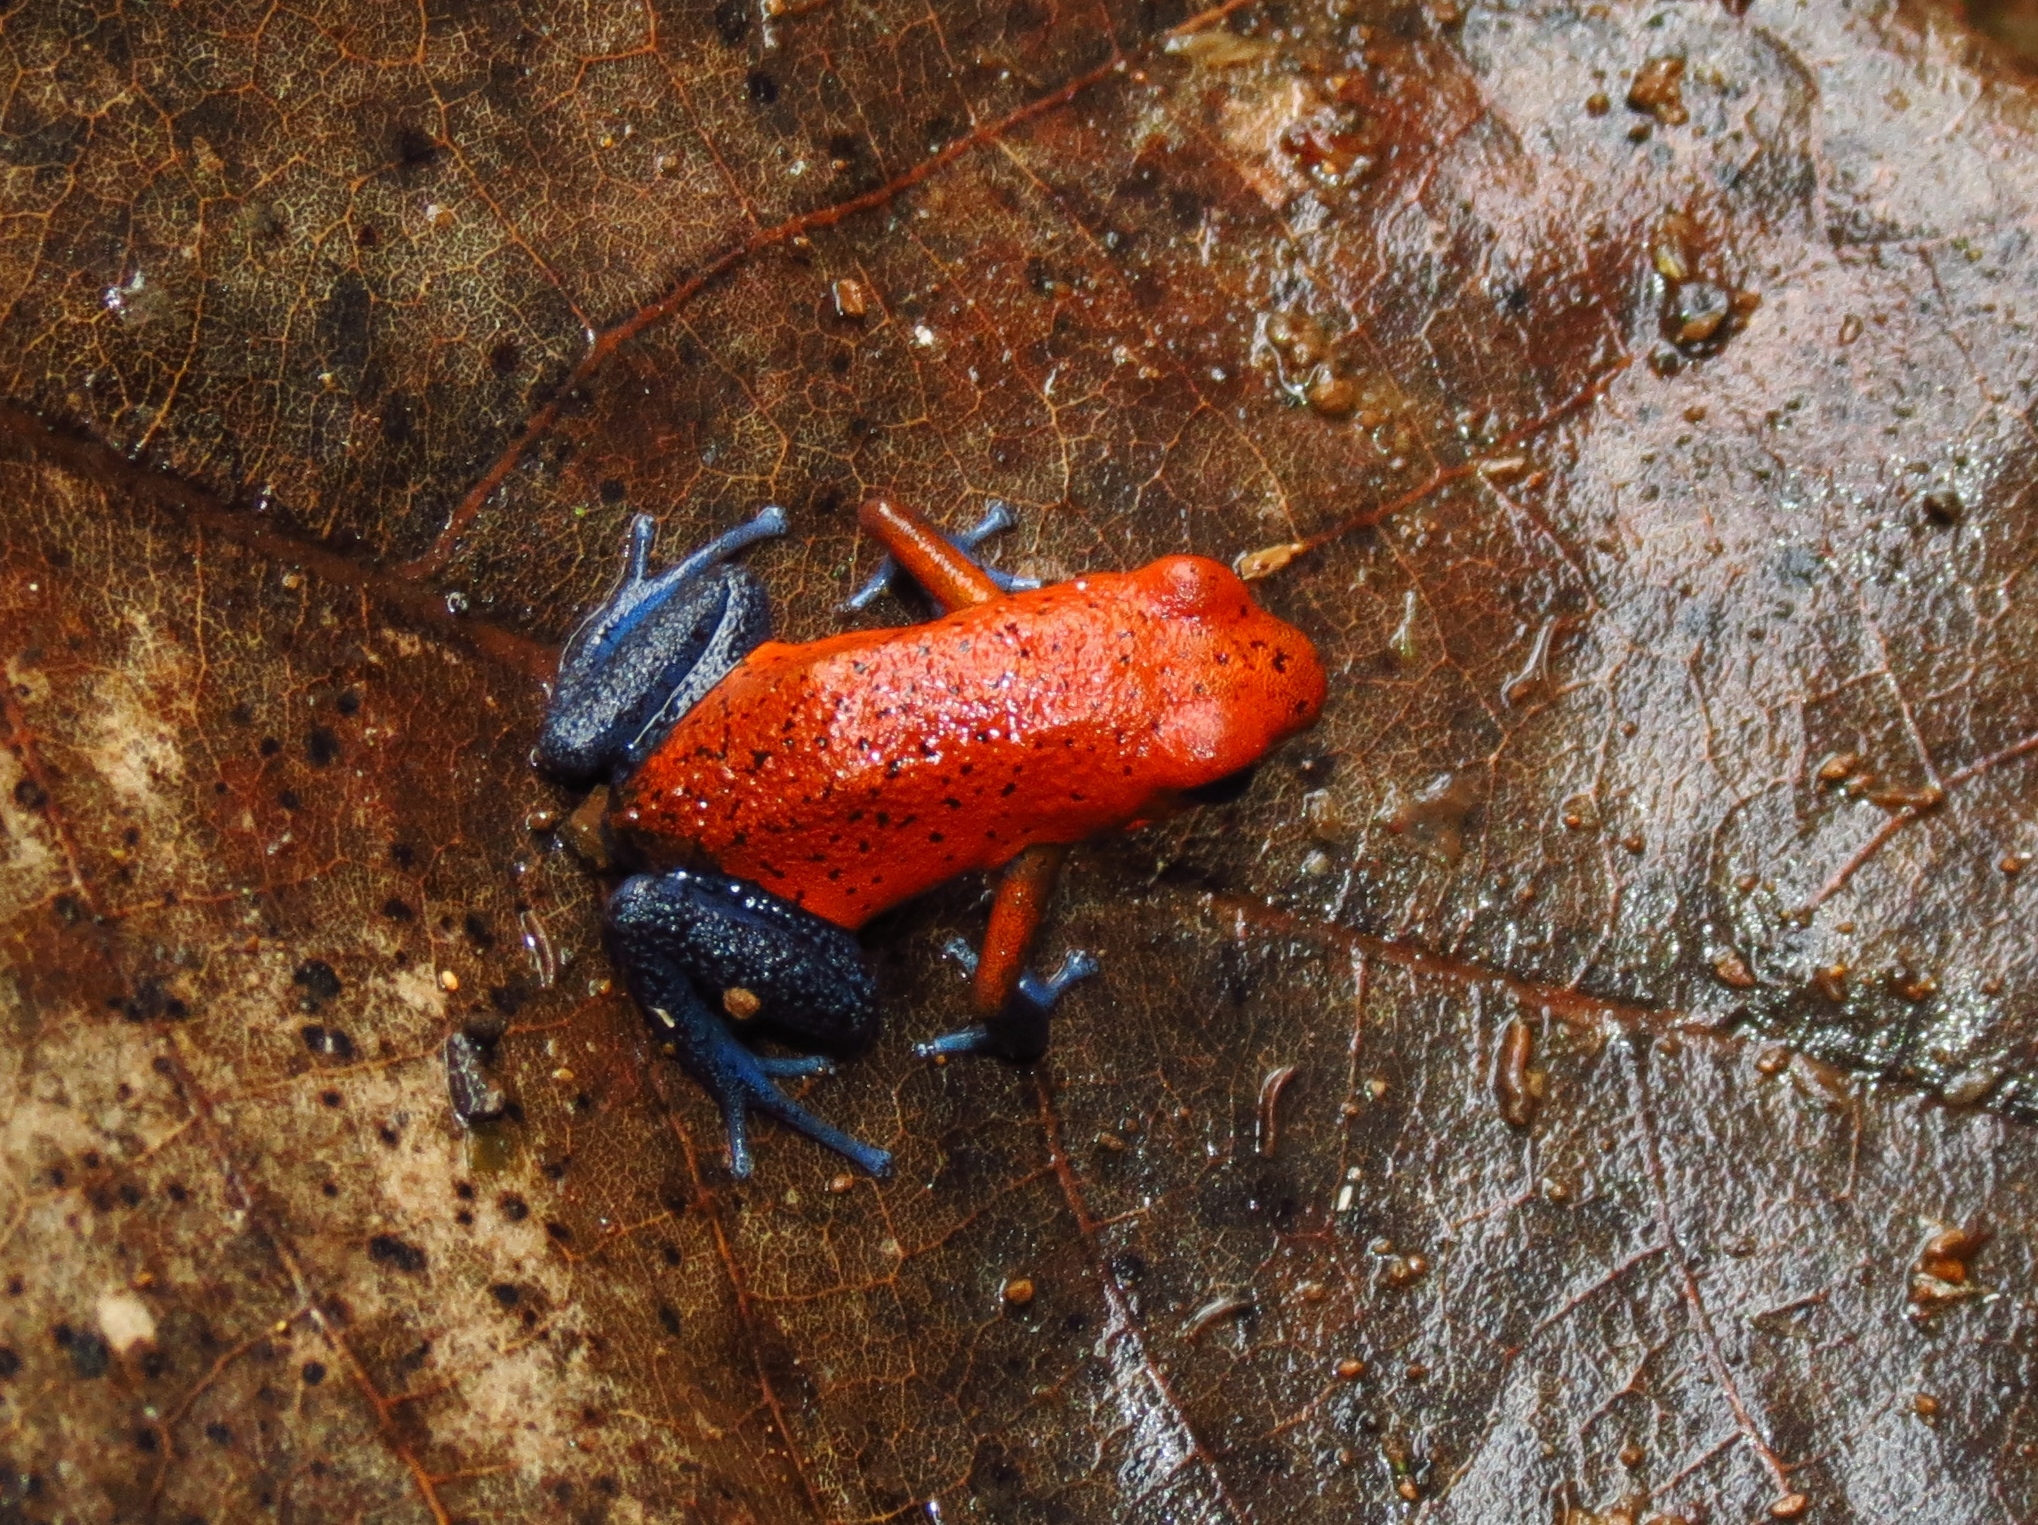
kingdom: Animalia
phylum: Chordata
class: Amphibia
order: Anura
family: Dendrobatidae
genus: Oophaga
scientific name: Oophaga pumilio
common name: Flaming poison frog
